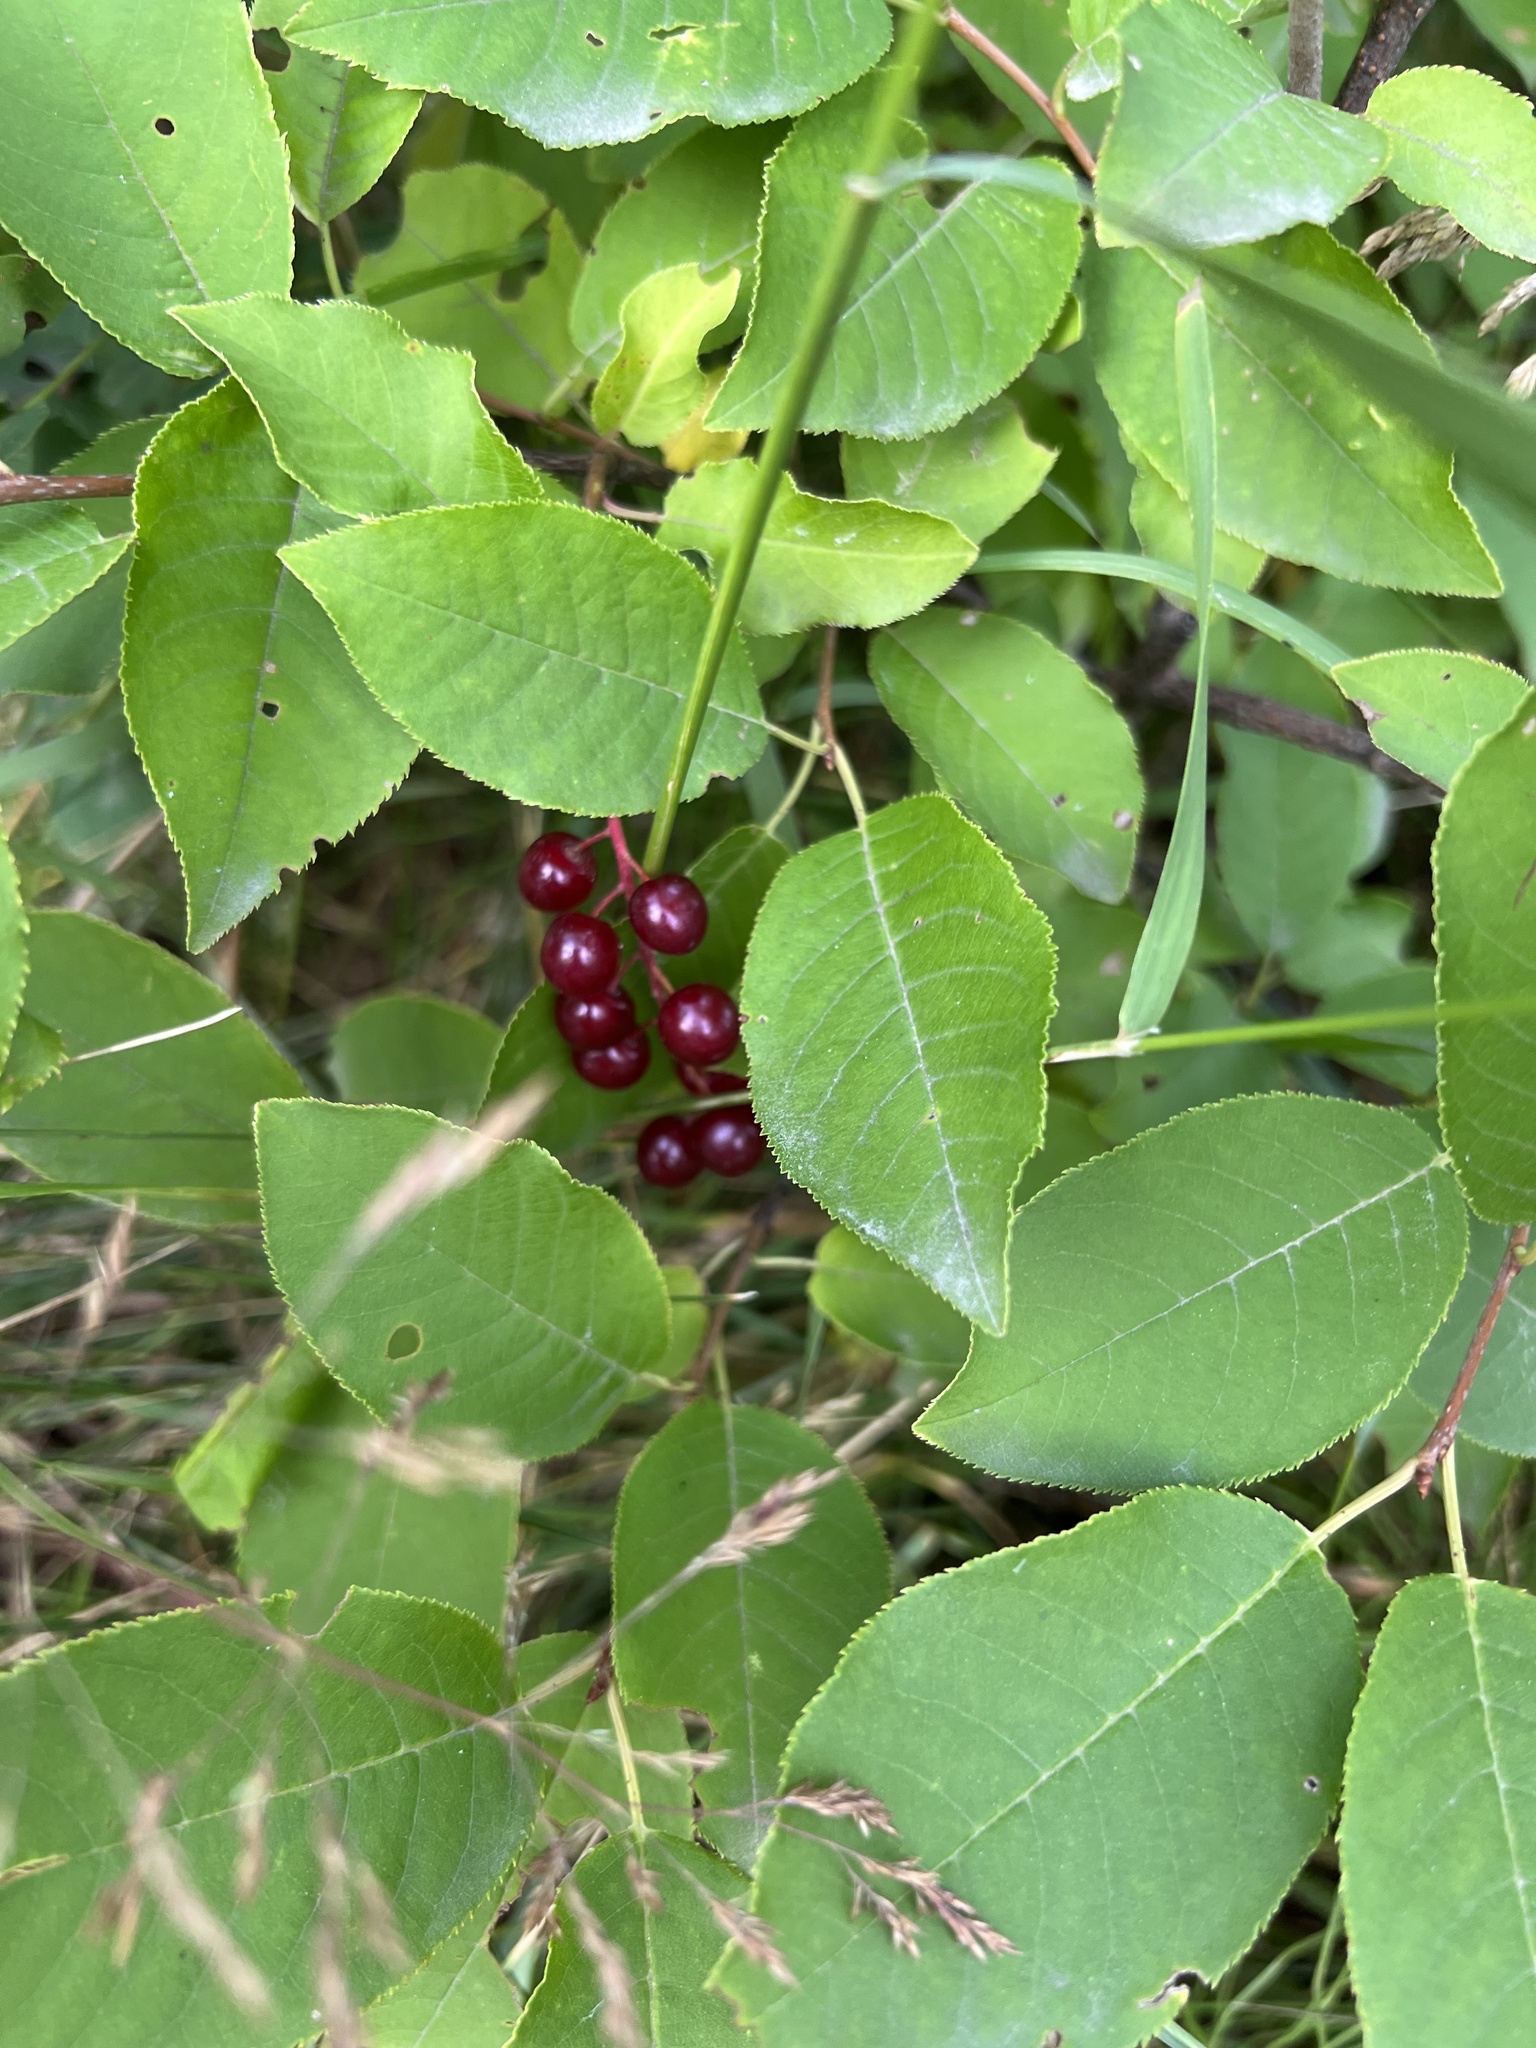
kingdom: Plantae
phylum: Tracheophyta
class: Magnoliopsida
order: Rosales
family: Rosaceae
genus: Prunus
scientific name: Prunus virginiana
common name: Chokecherry
